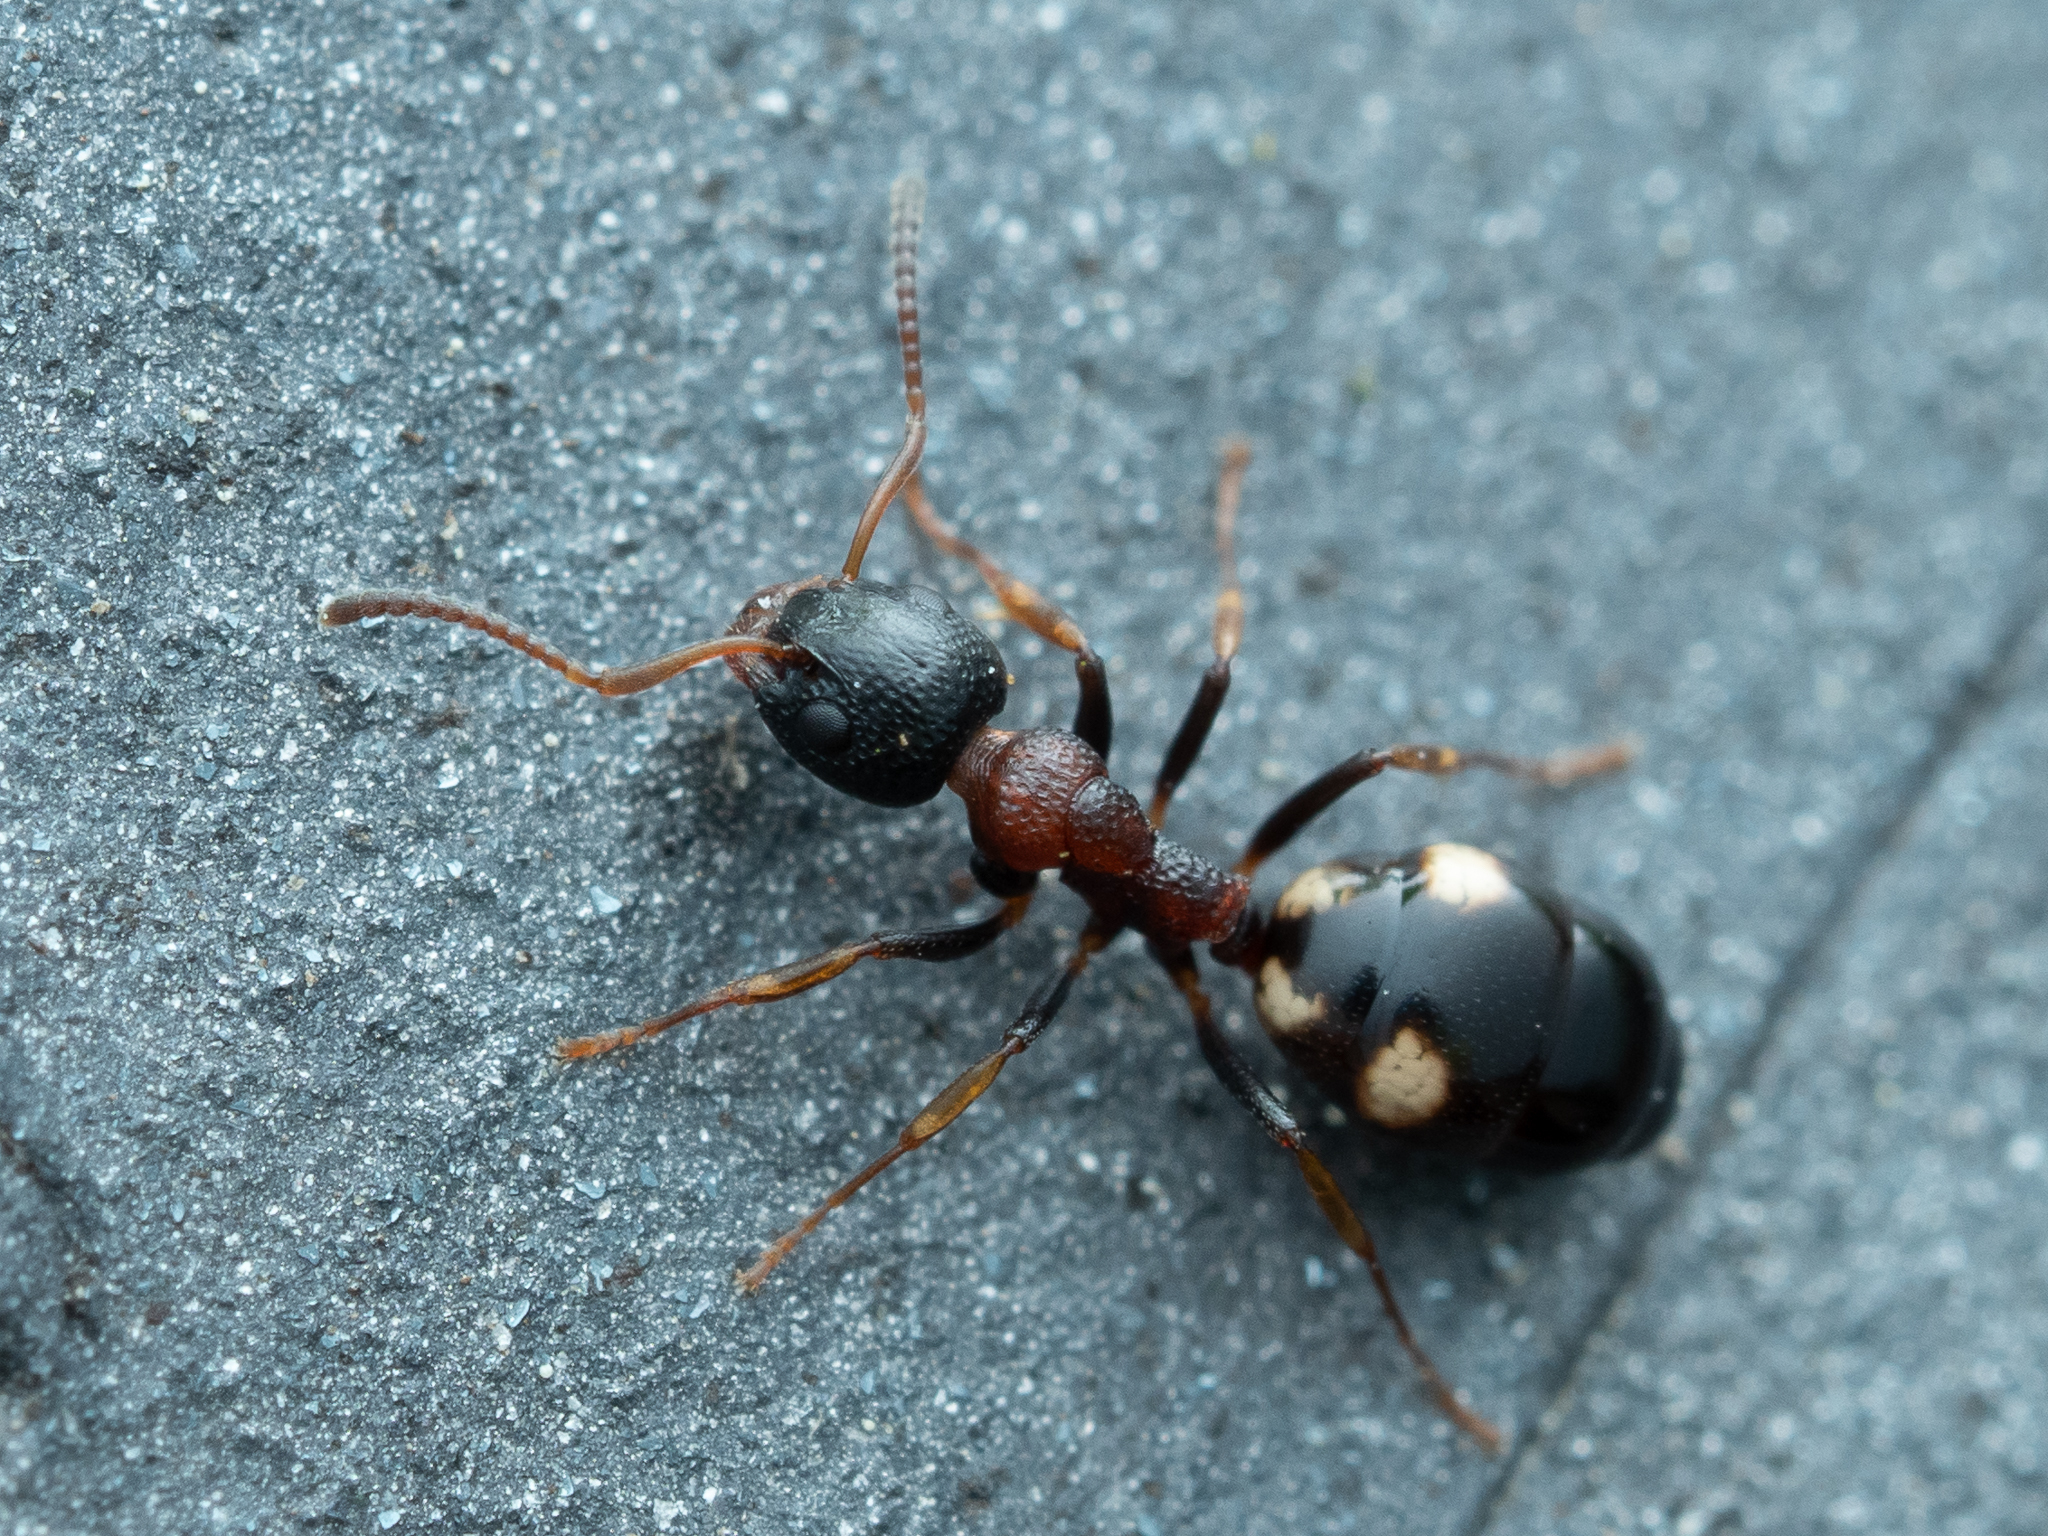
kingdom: Animalia
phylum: Arthropoda
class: Insecta
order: Hymenoptera
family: Formicidae
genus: Dolichoderus
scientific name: Dolichoderus quadripunctatus
